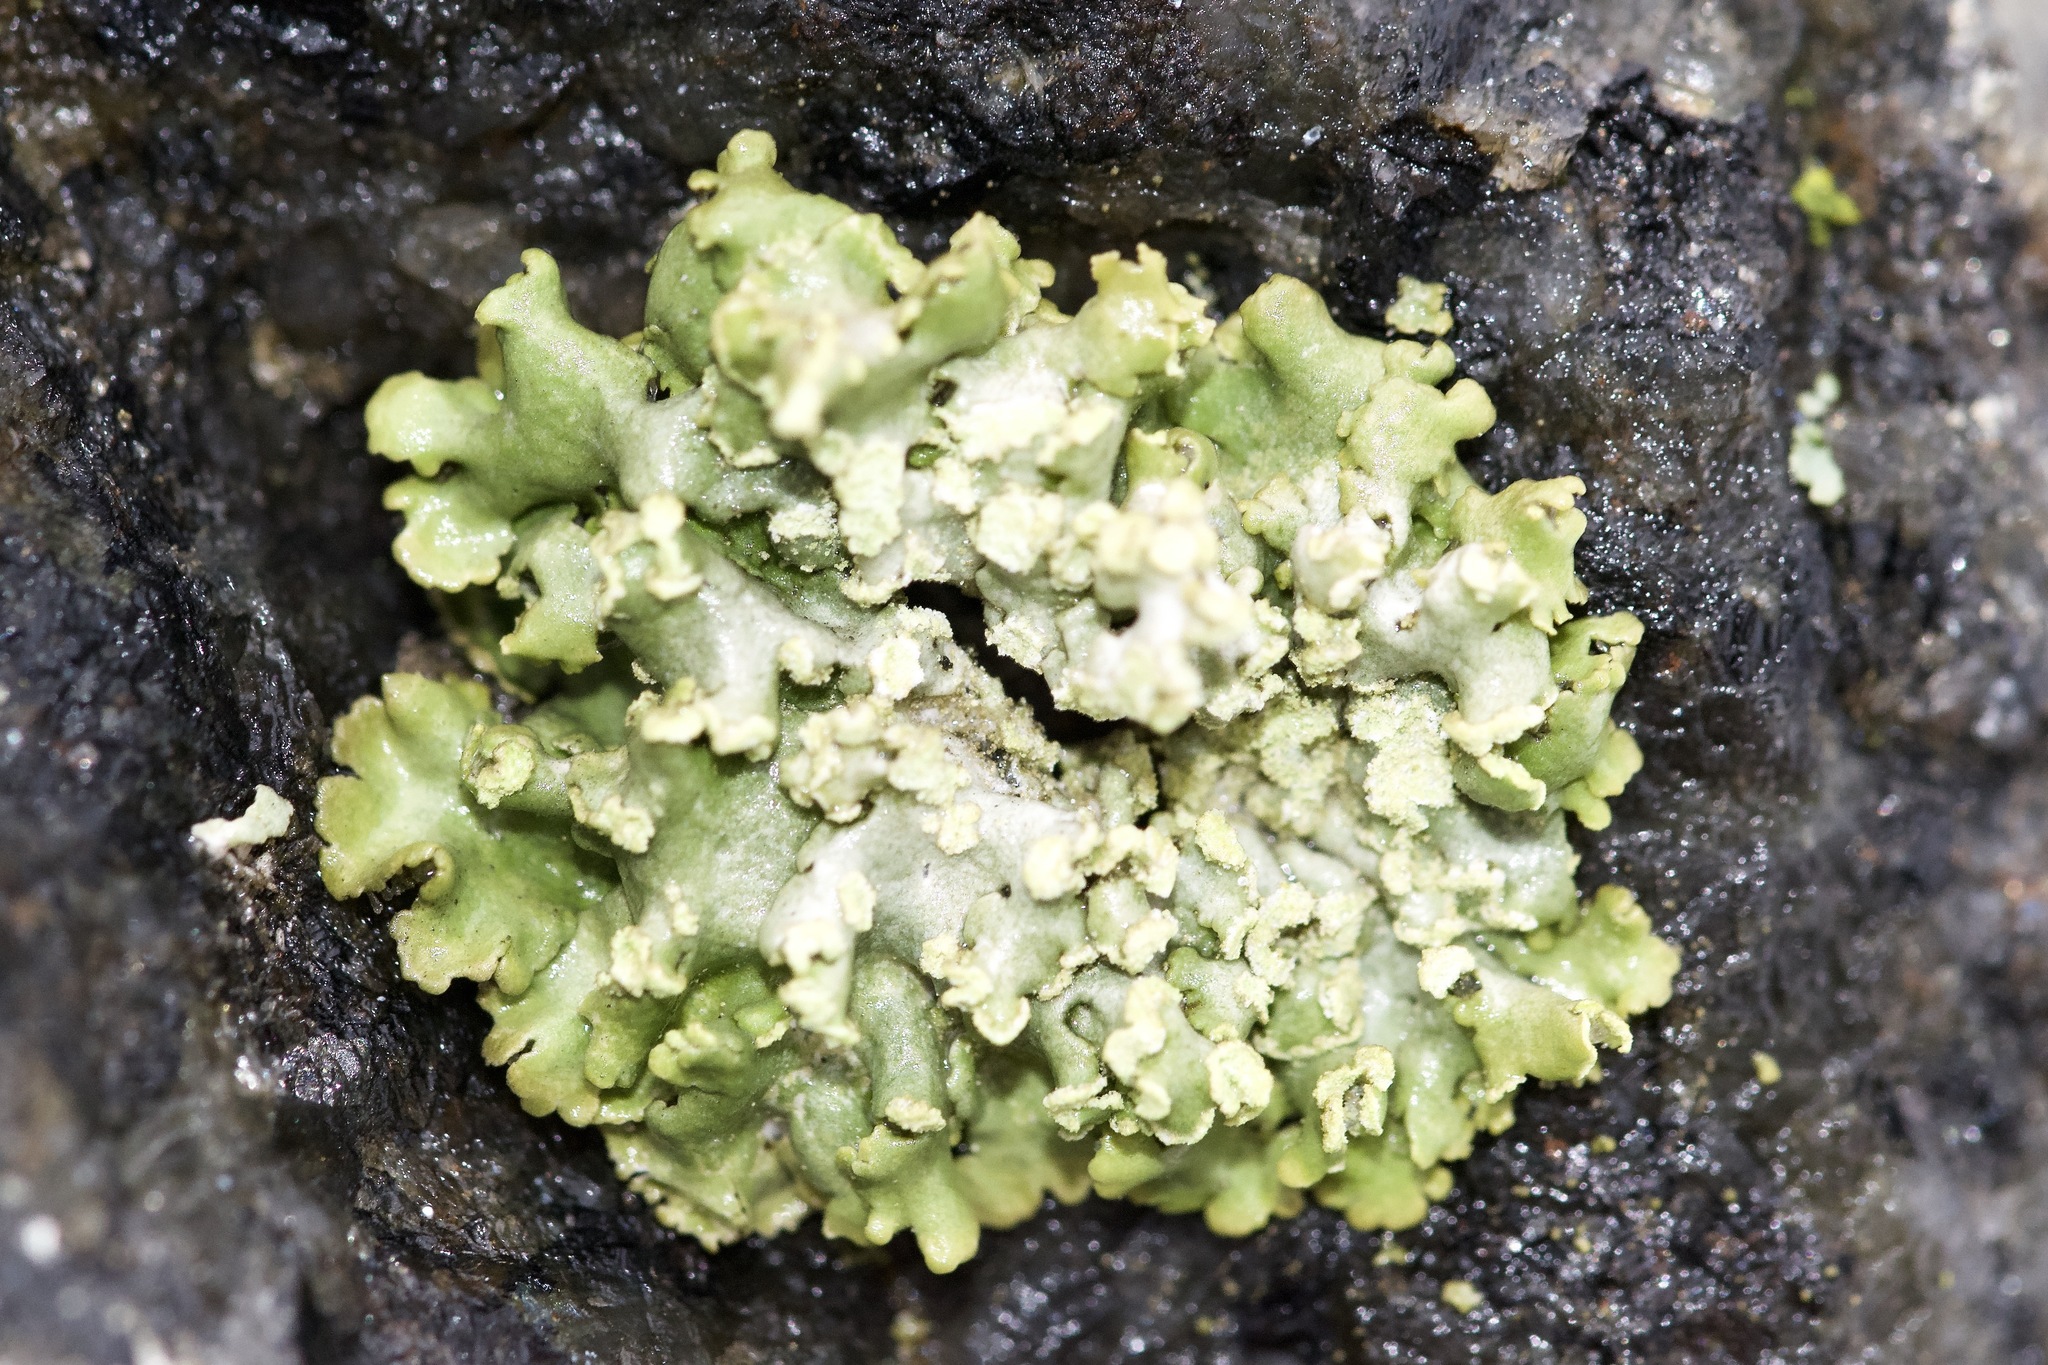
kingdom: Fungi
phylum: Ascomycota
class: Lecanoromycetes
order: Caliciales
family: Physciaceae
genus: Physciella
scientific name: Physciella chloantha
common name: Cryptic rosette lichen
